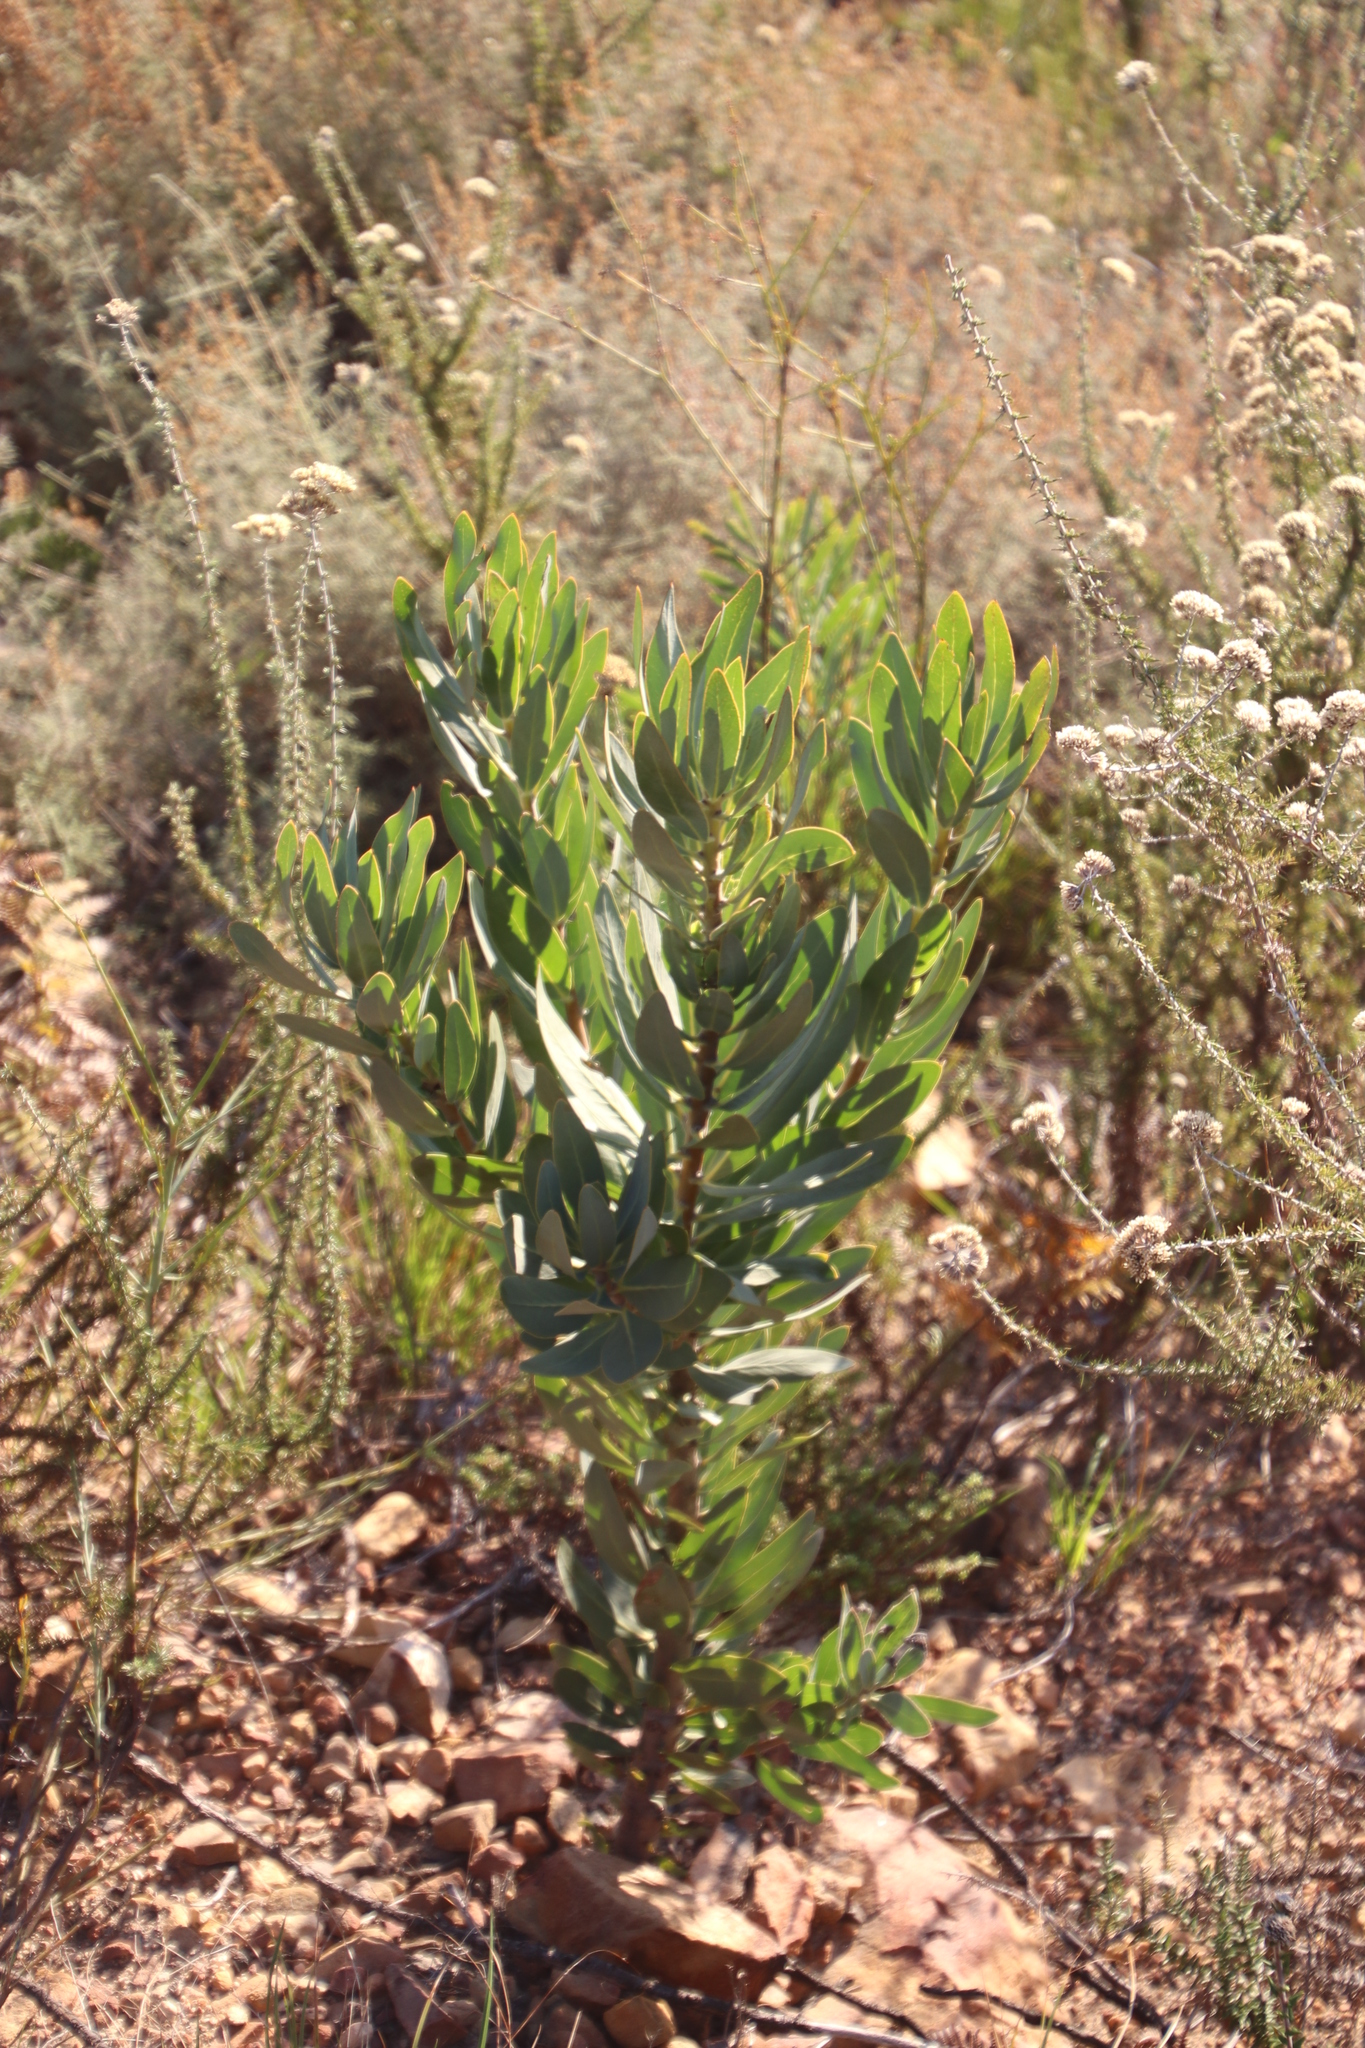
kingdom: Plantae
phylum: Tracheophyta
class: Magnoliopsida
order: Proteales
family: Proteaceae
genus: Protea
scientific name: Protea laurifolia
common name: Grey-leaf sugarbsh
